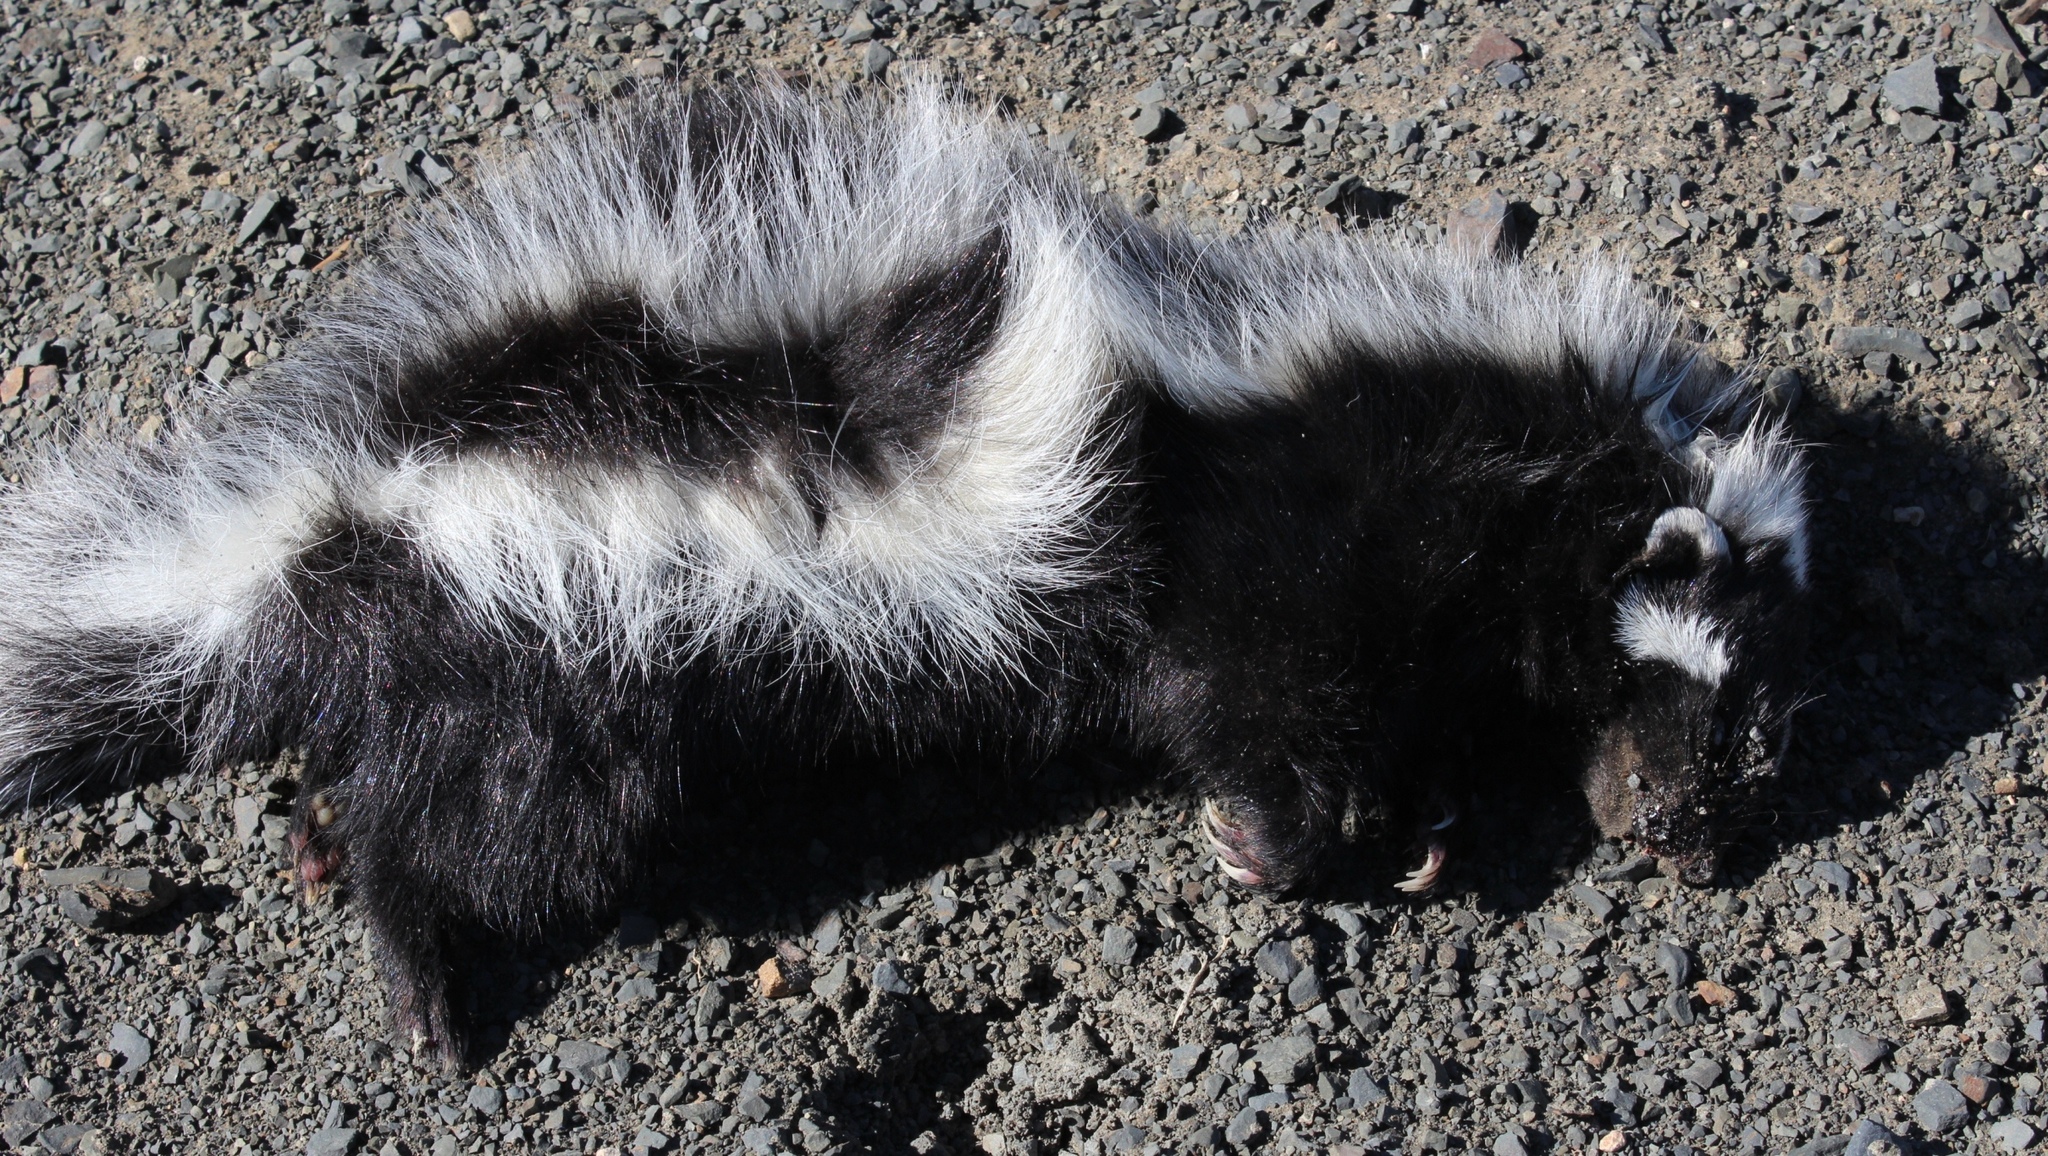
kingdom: Animalia
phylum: Chordata
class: Mammalia
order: Carnivora
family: Mustelidae
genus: Ictonyx
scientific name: Ictonyx striatus
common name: Striped polecat
